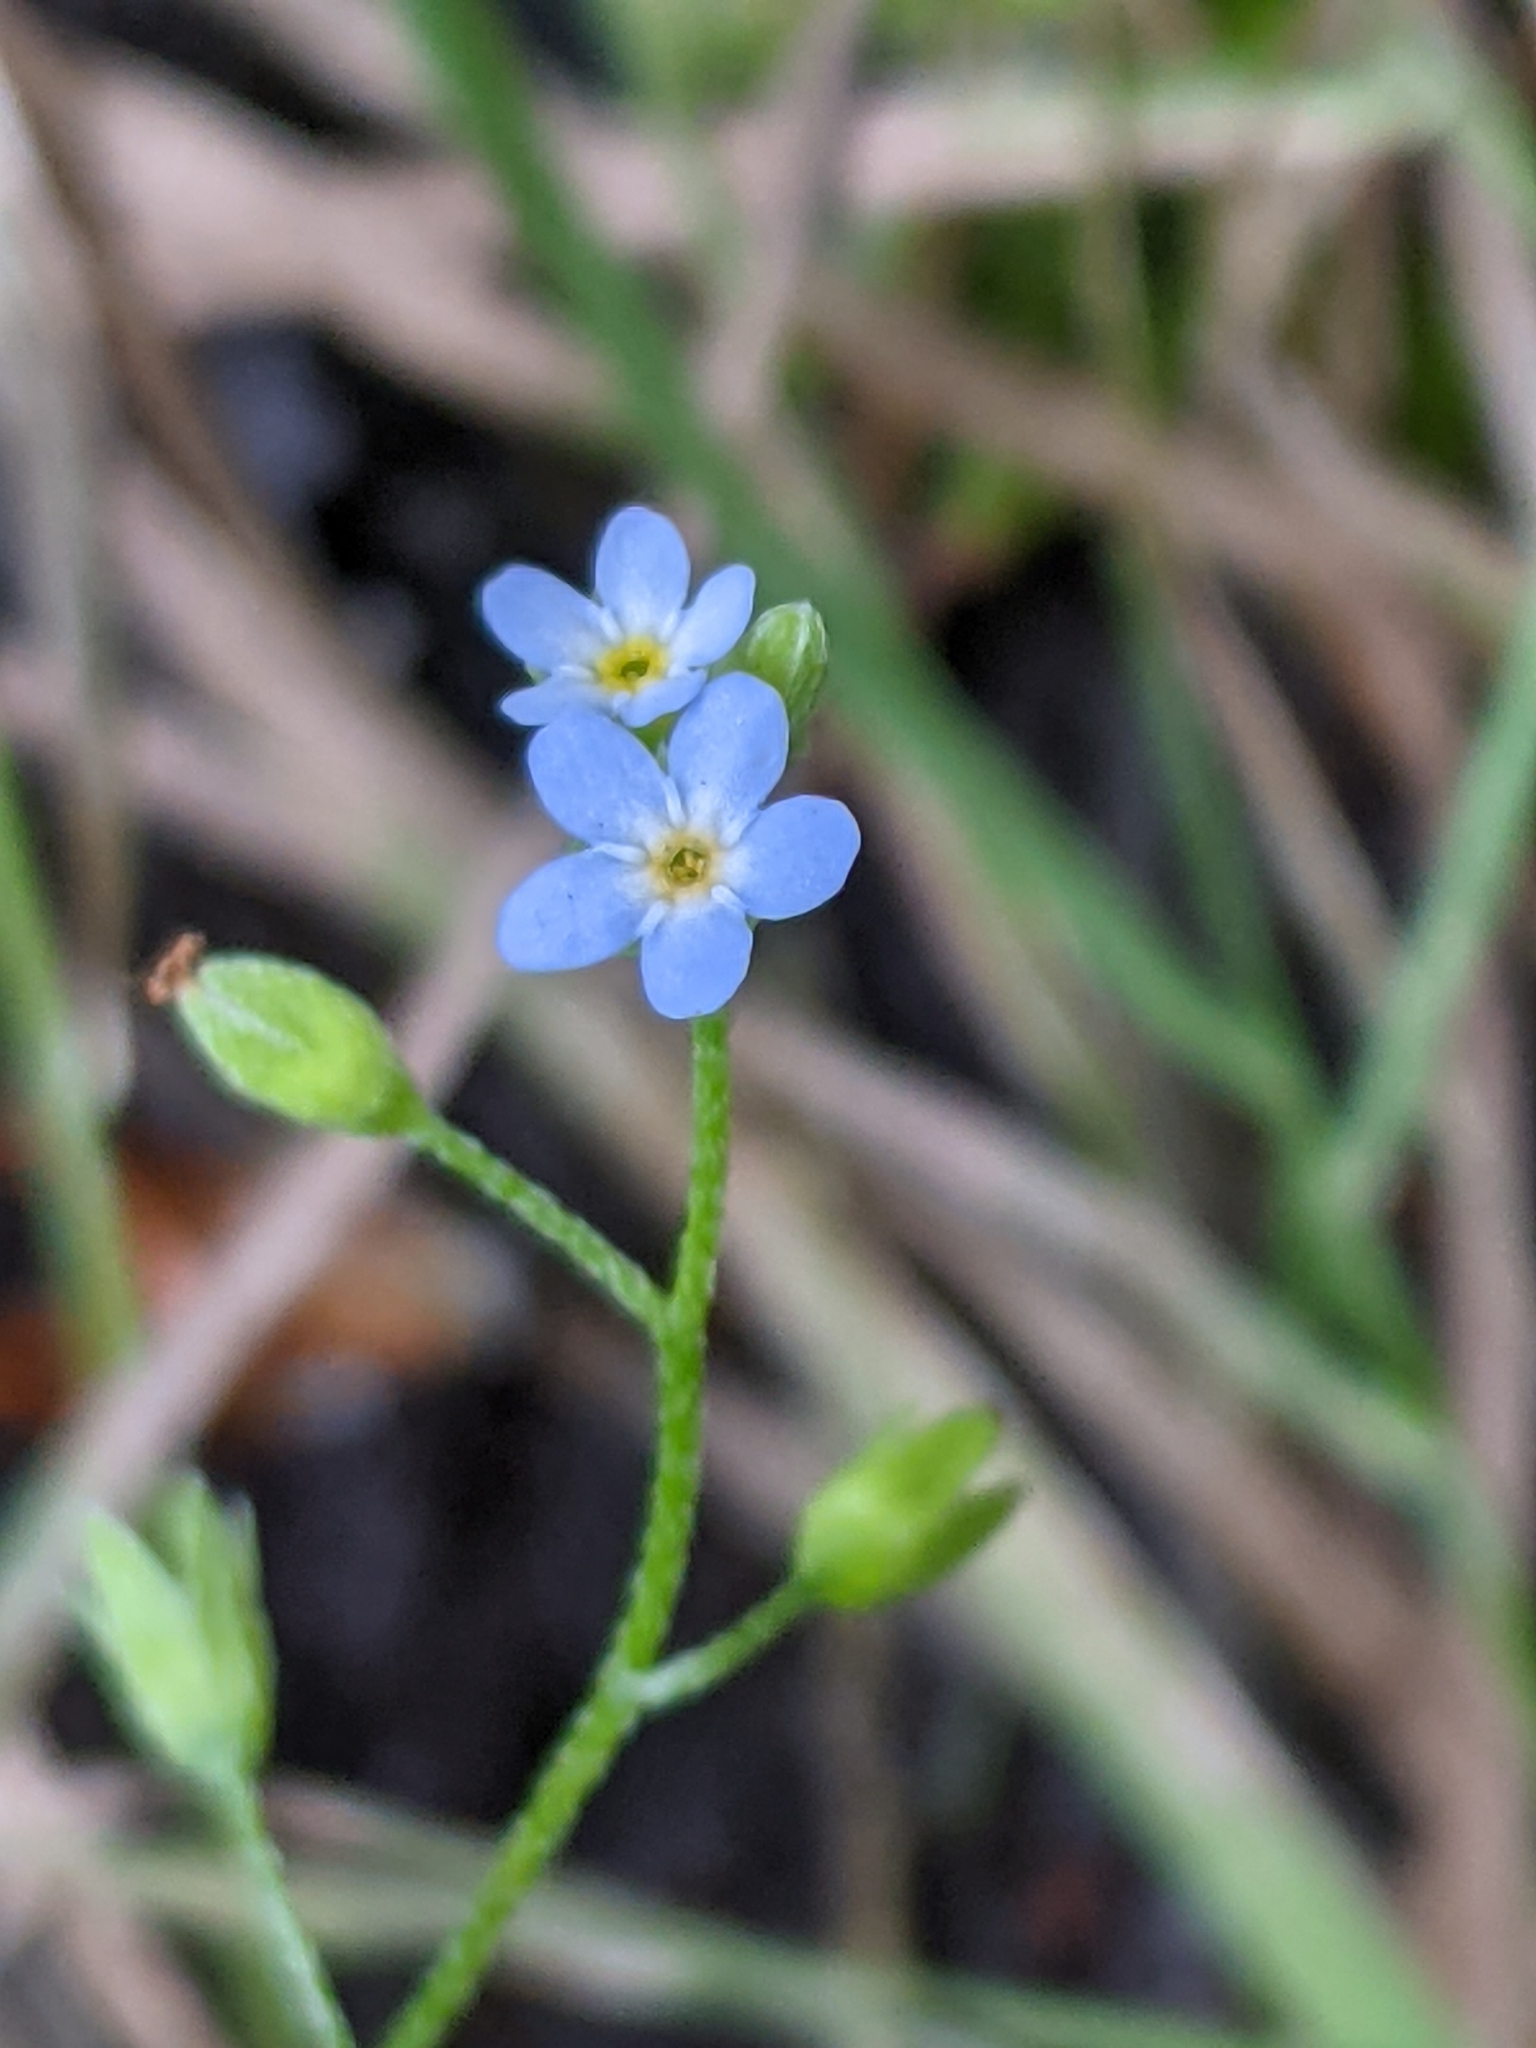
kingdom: Plantae
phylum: Tracheophyta
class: Magnoliopsida
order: Boraginales
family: Boraginaceae
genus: Myosotis
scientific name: Myosotis laxa
